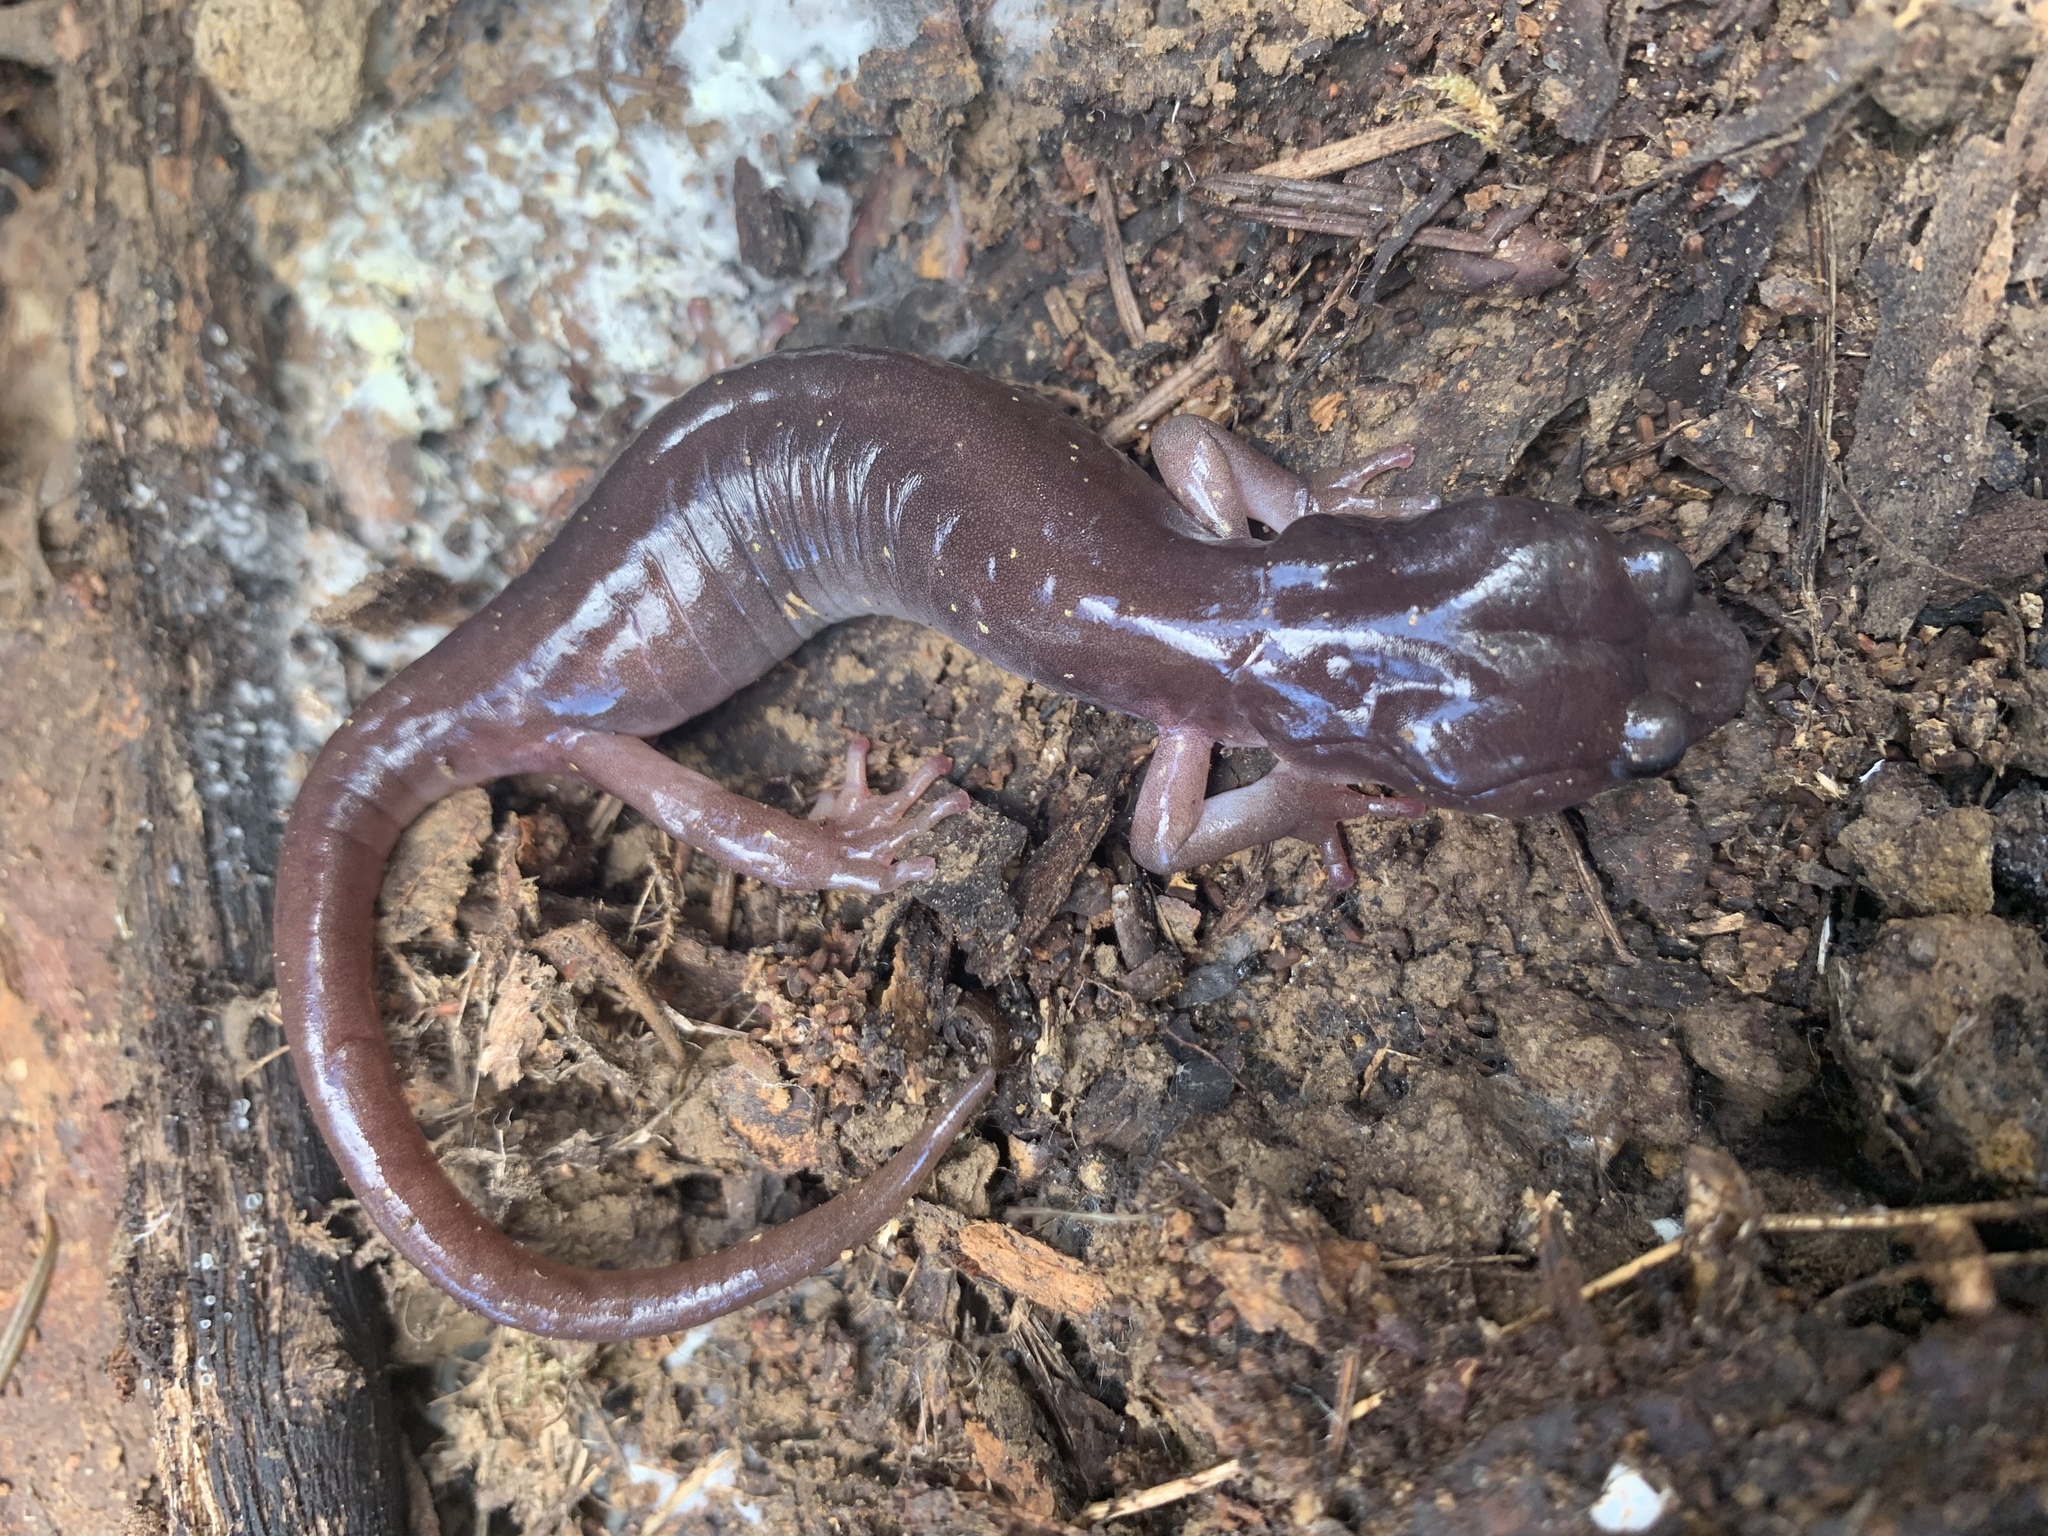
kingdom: Animalia
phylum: Chordata
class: Amphibia
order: Caudata
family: Plethodontidae
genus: Aneides
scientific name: Aneides lugubris
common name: Arboreal salamander
